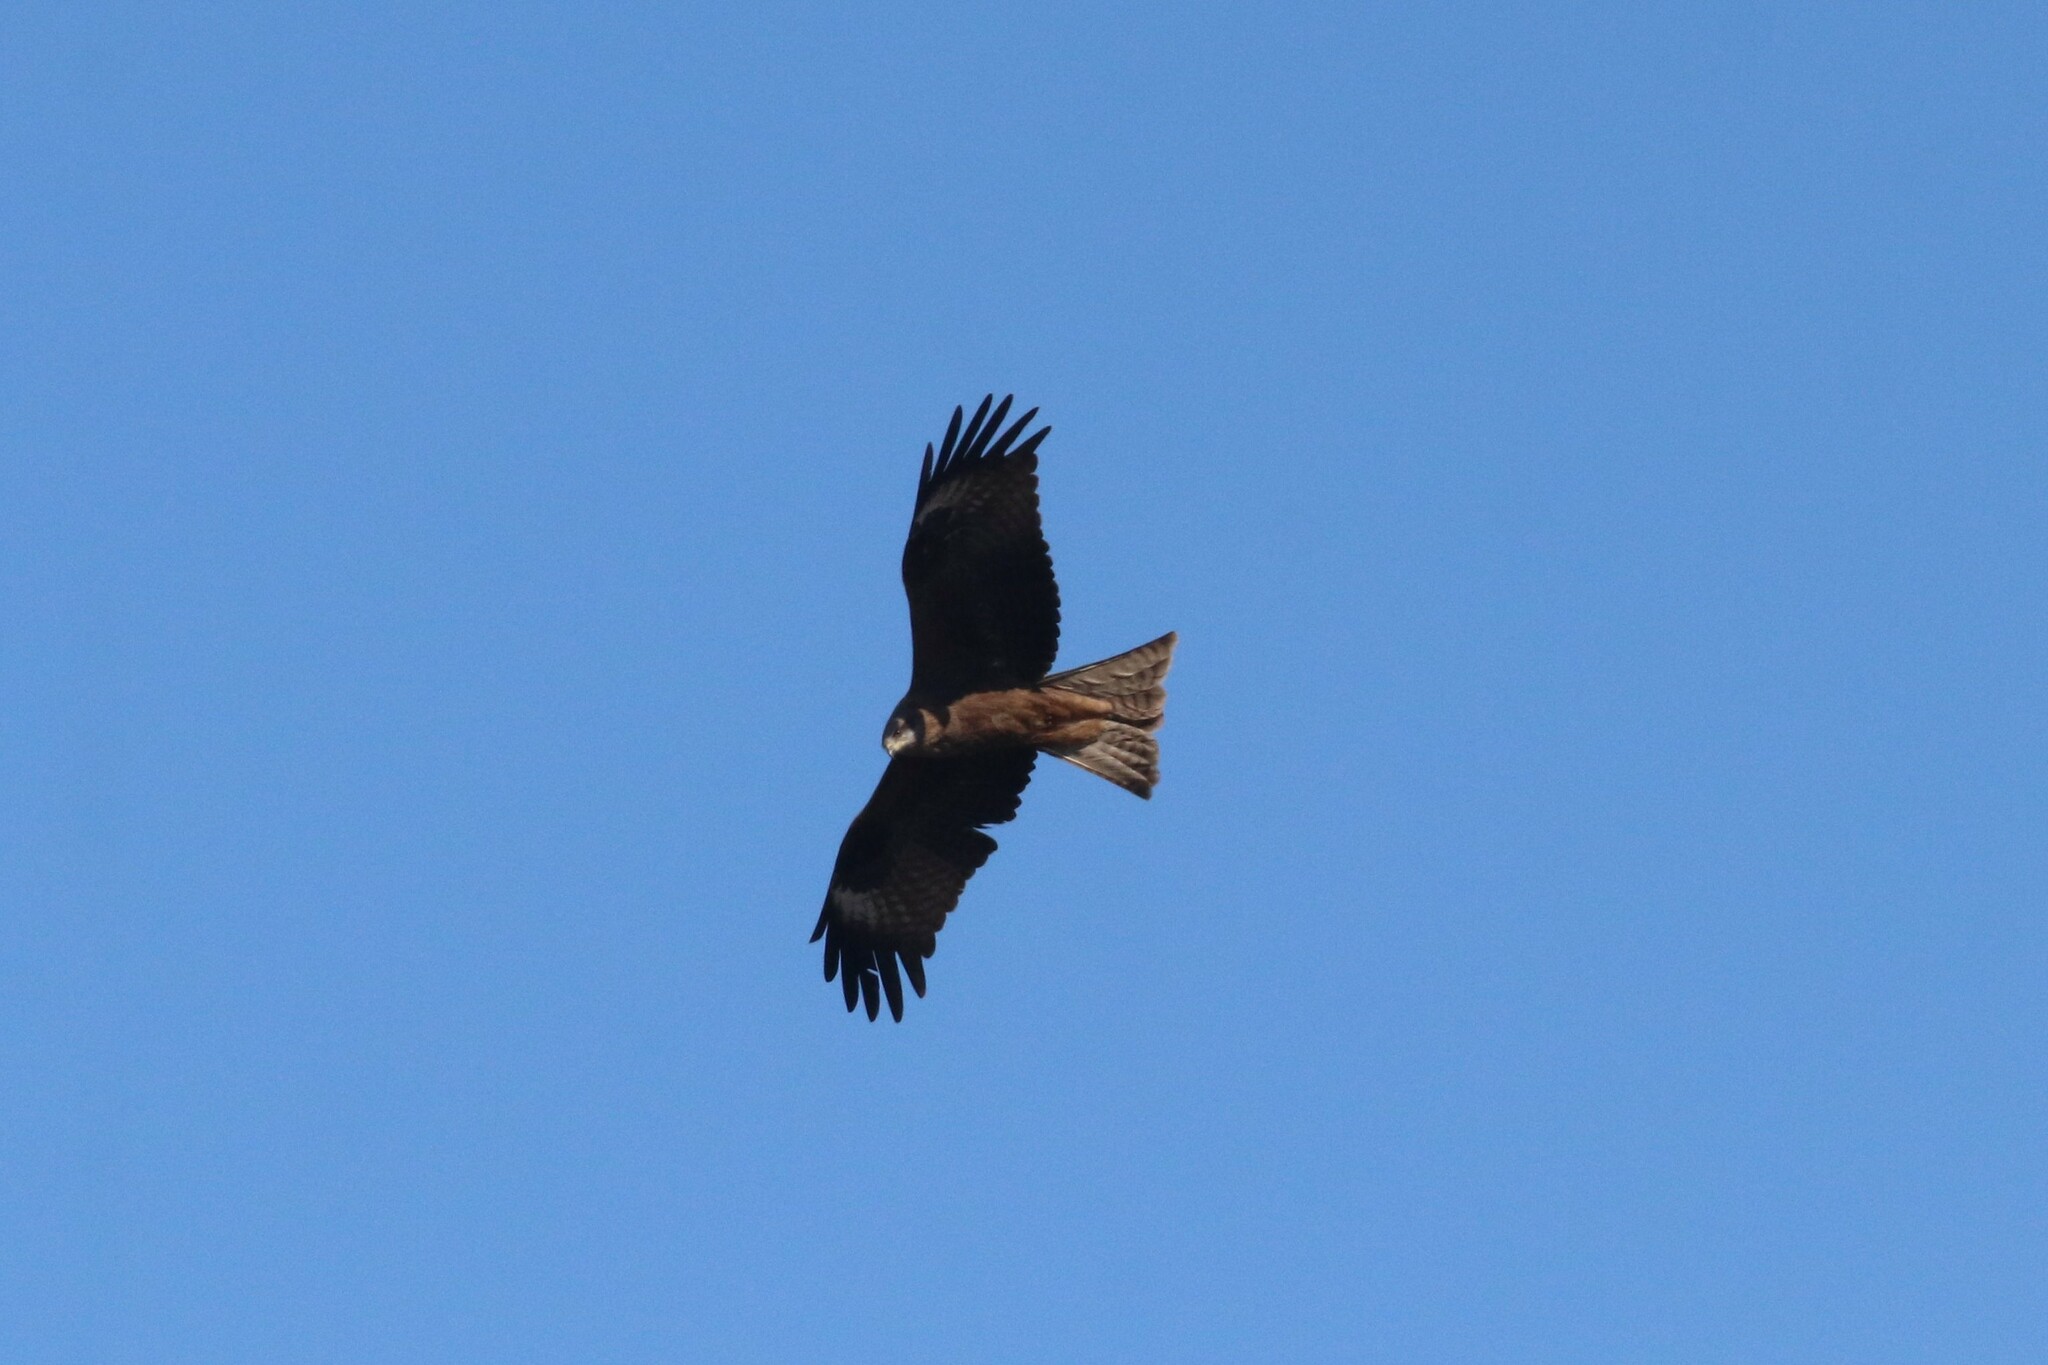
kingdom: Animalia
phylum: Chordata
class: Aves
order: Accipitriformes
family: Accipitridae
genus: Milvus
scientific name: Milvus migrans
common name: Black kite
